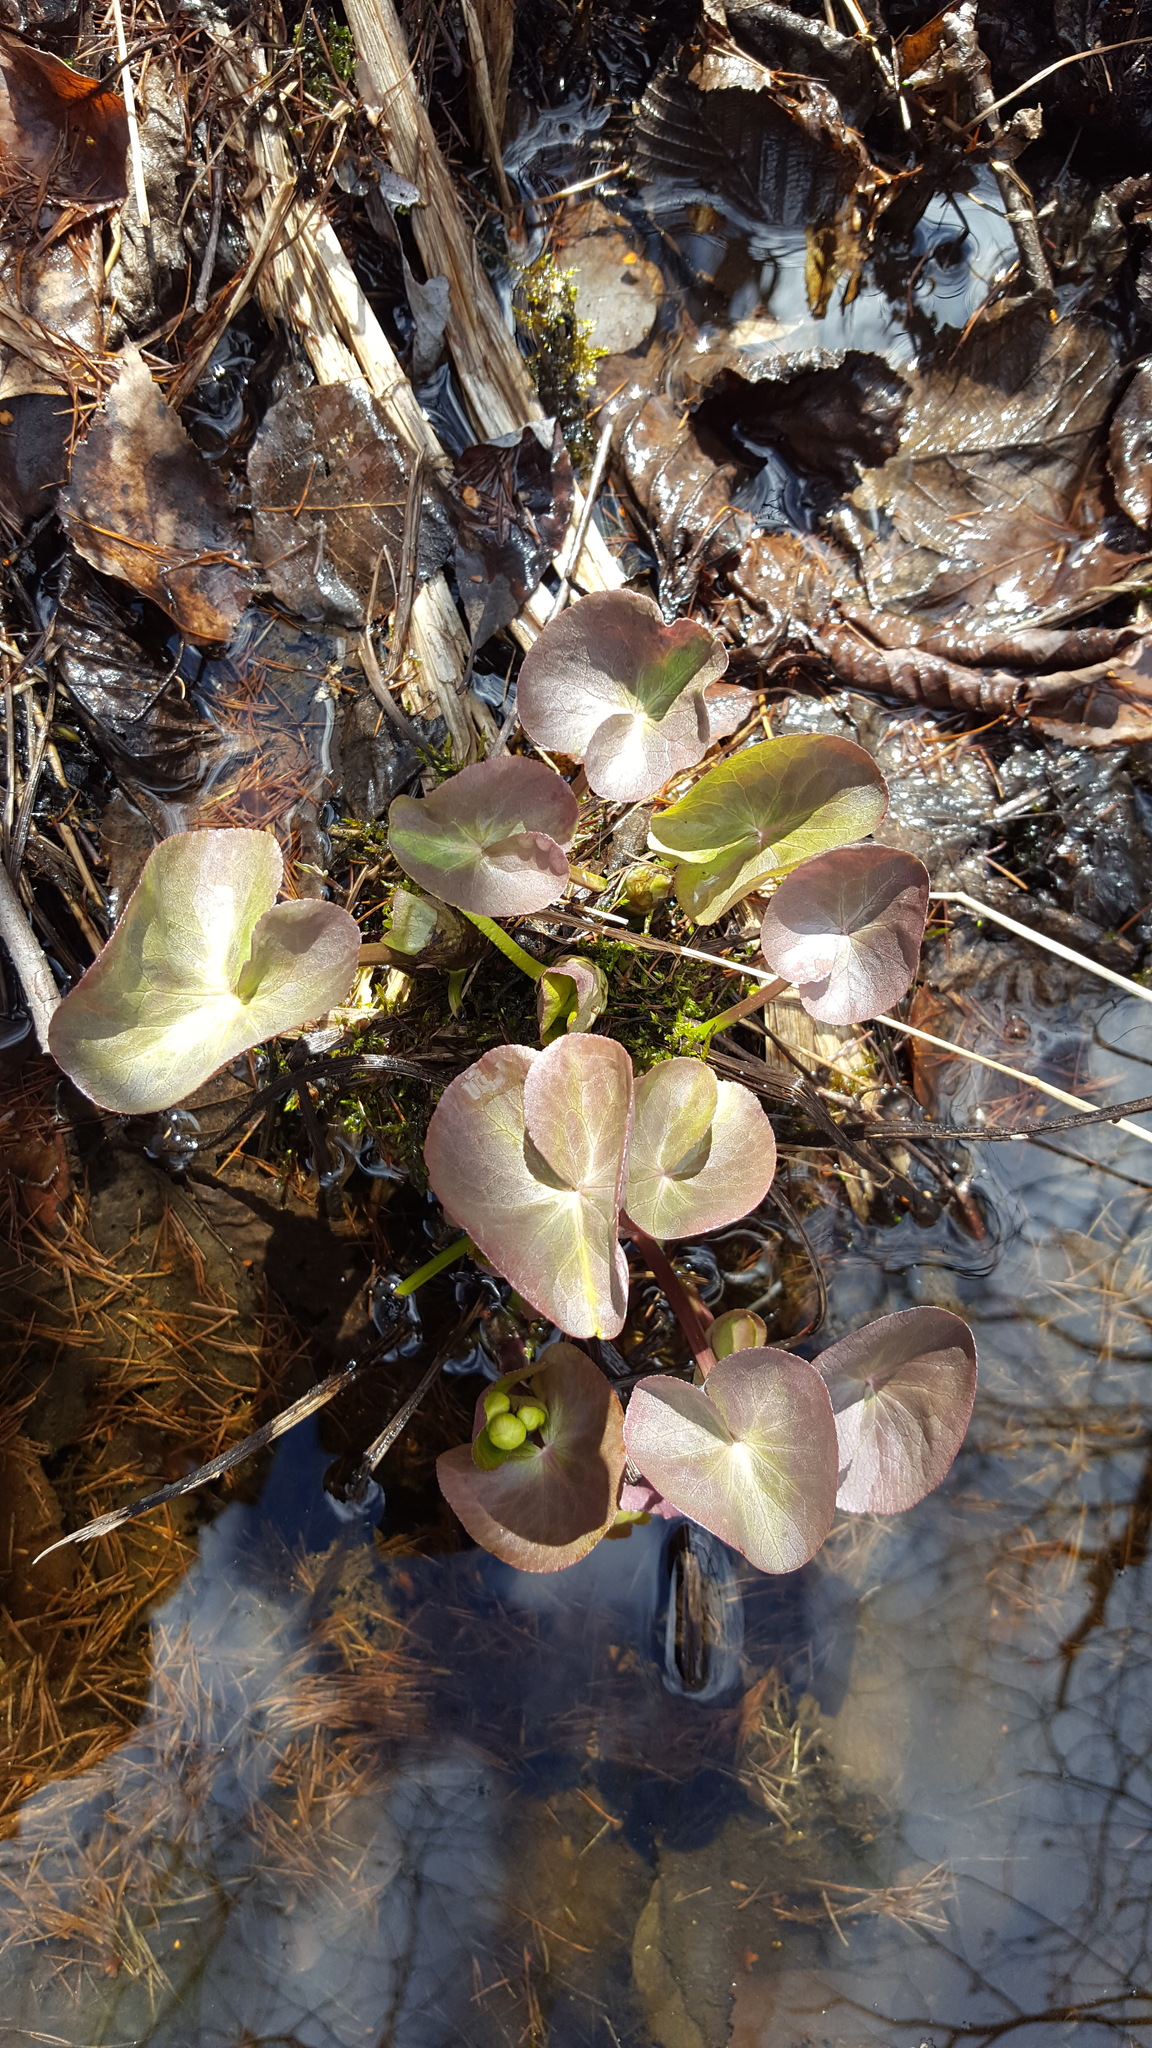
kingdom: Plantae
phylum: Tracheophyta
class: Magnoliopsida
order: Ranunculales
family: Ranunculaceae
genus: Caltha
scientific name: Caltha palustris
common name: Marsh marigold
